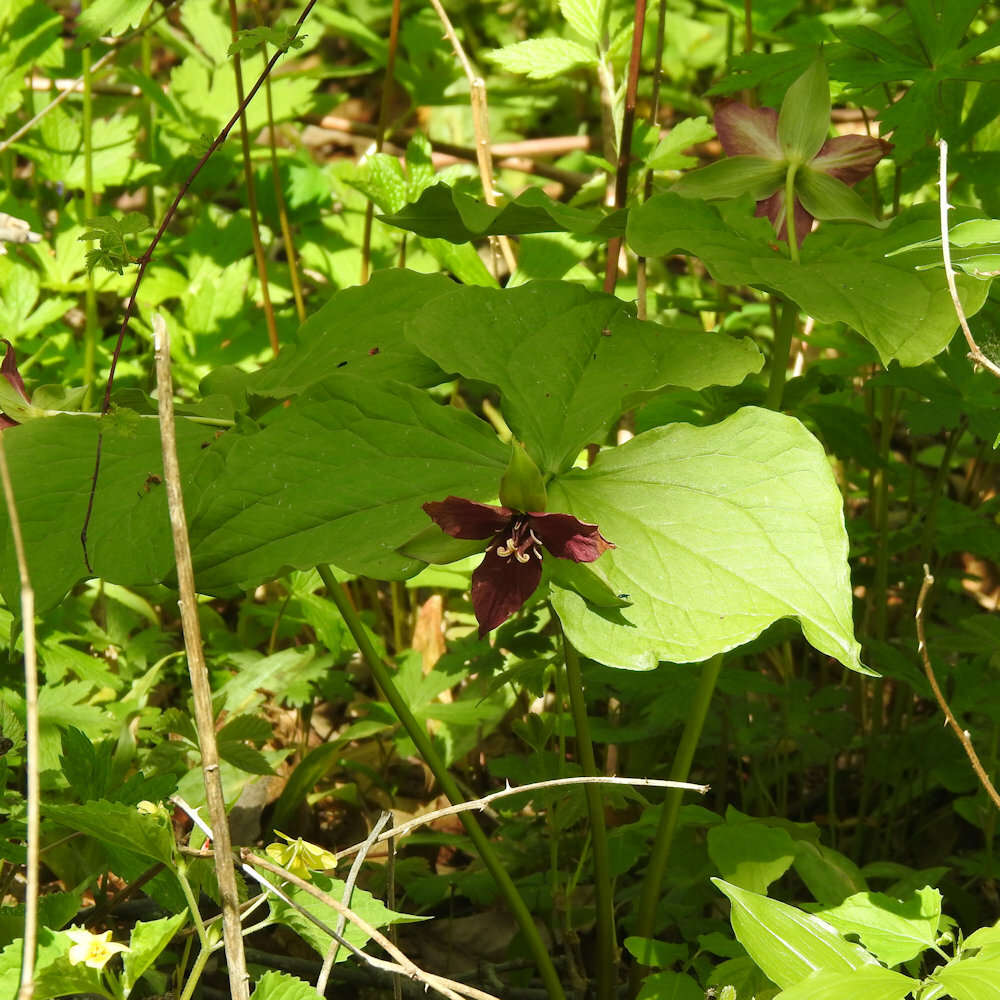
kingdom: Plantae
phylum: Tracheophyta
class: Liliopsida
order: Liliales
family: Melanthiaceae
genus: Trillium
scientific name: Trillium erectum
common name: Purple trillium
